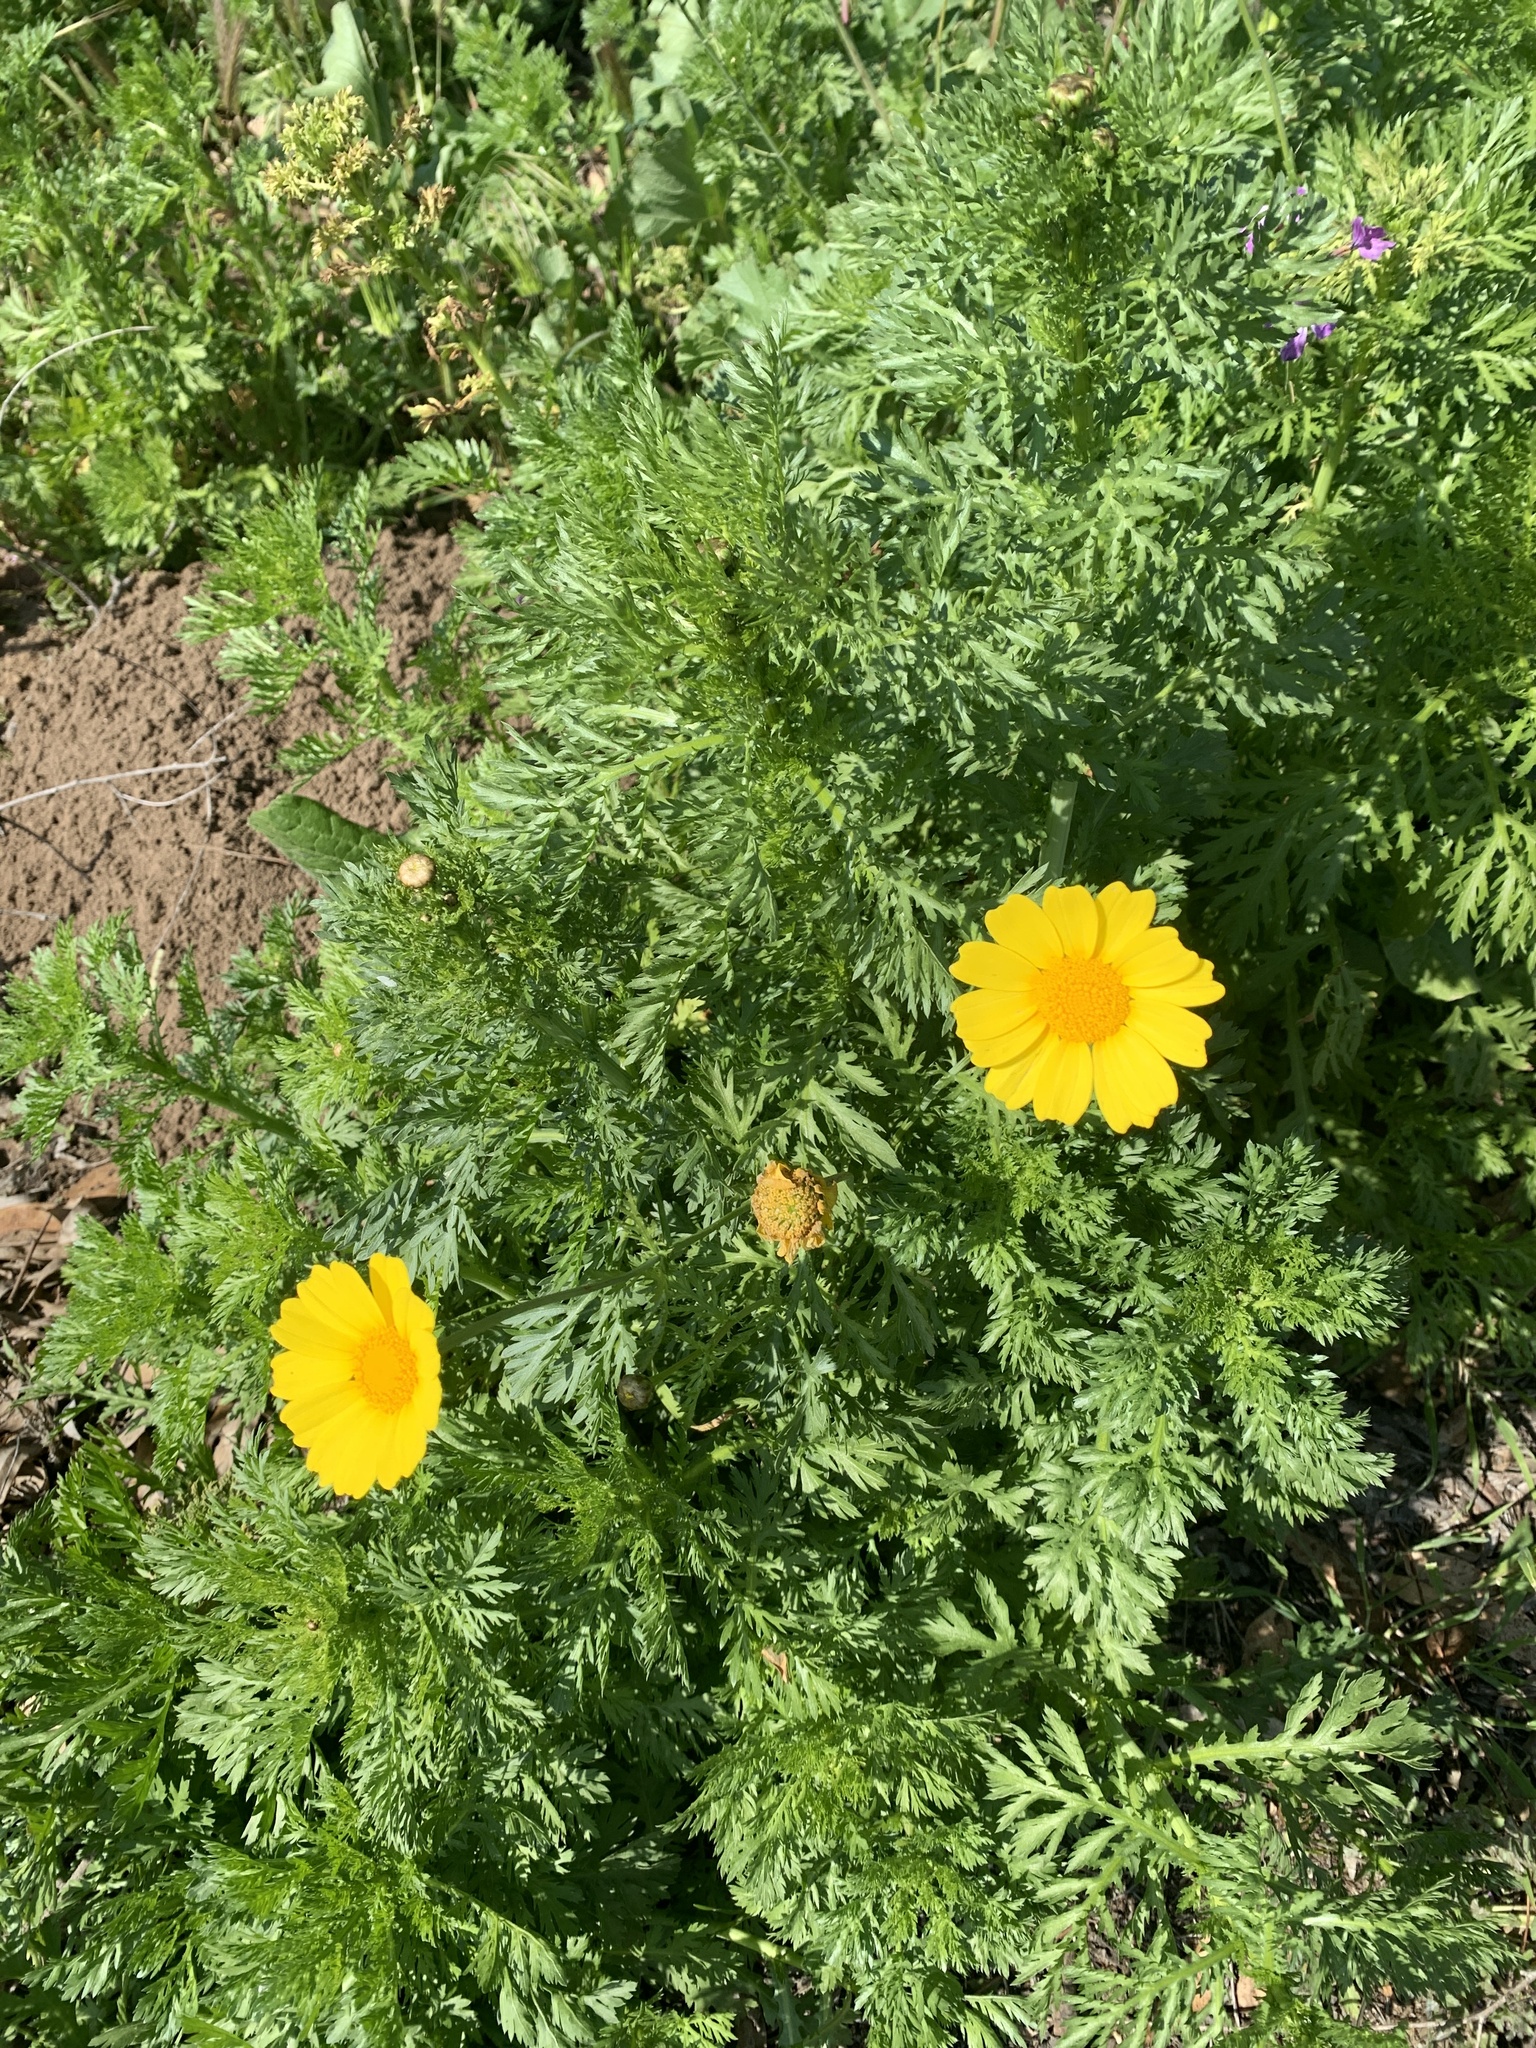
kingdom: Plantae
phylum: Tracheophyta
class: Magnoliopsida
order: Asterales
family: Asteraceae
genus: Glebionis
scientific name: Glebionis coronaria
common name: Crowndaisy
